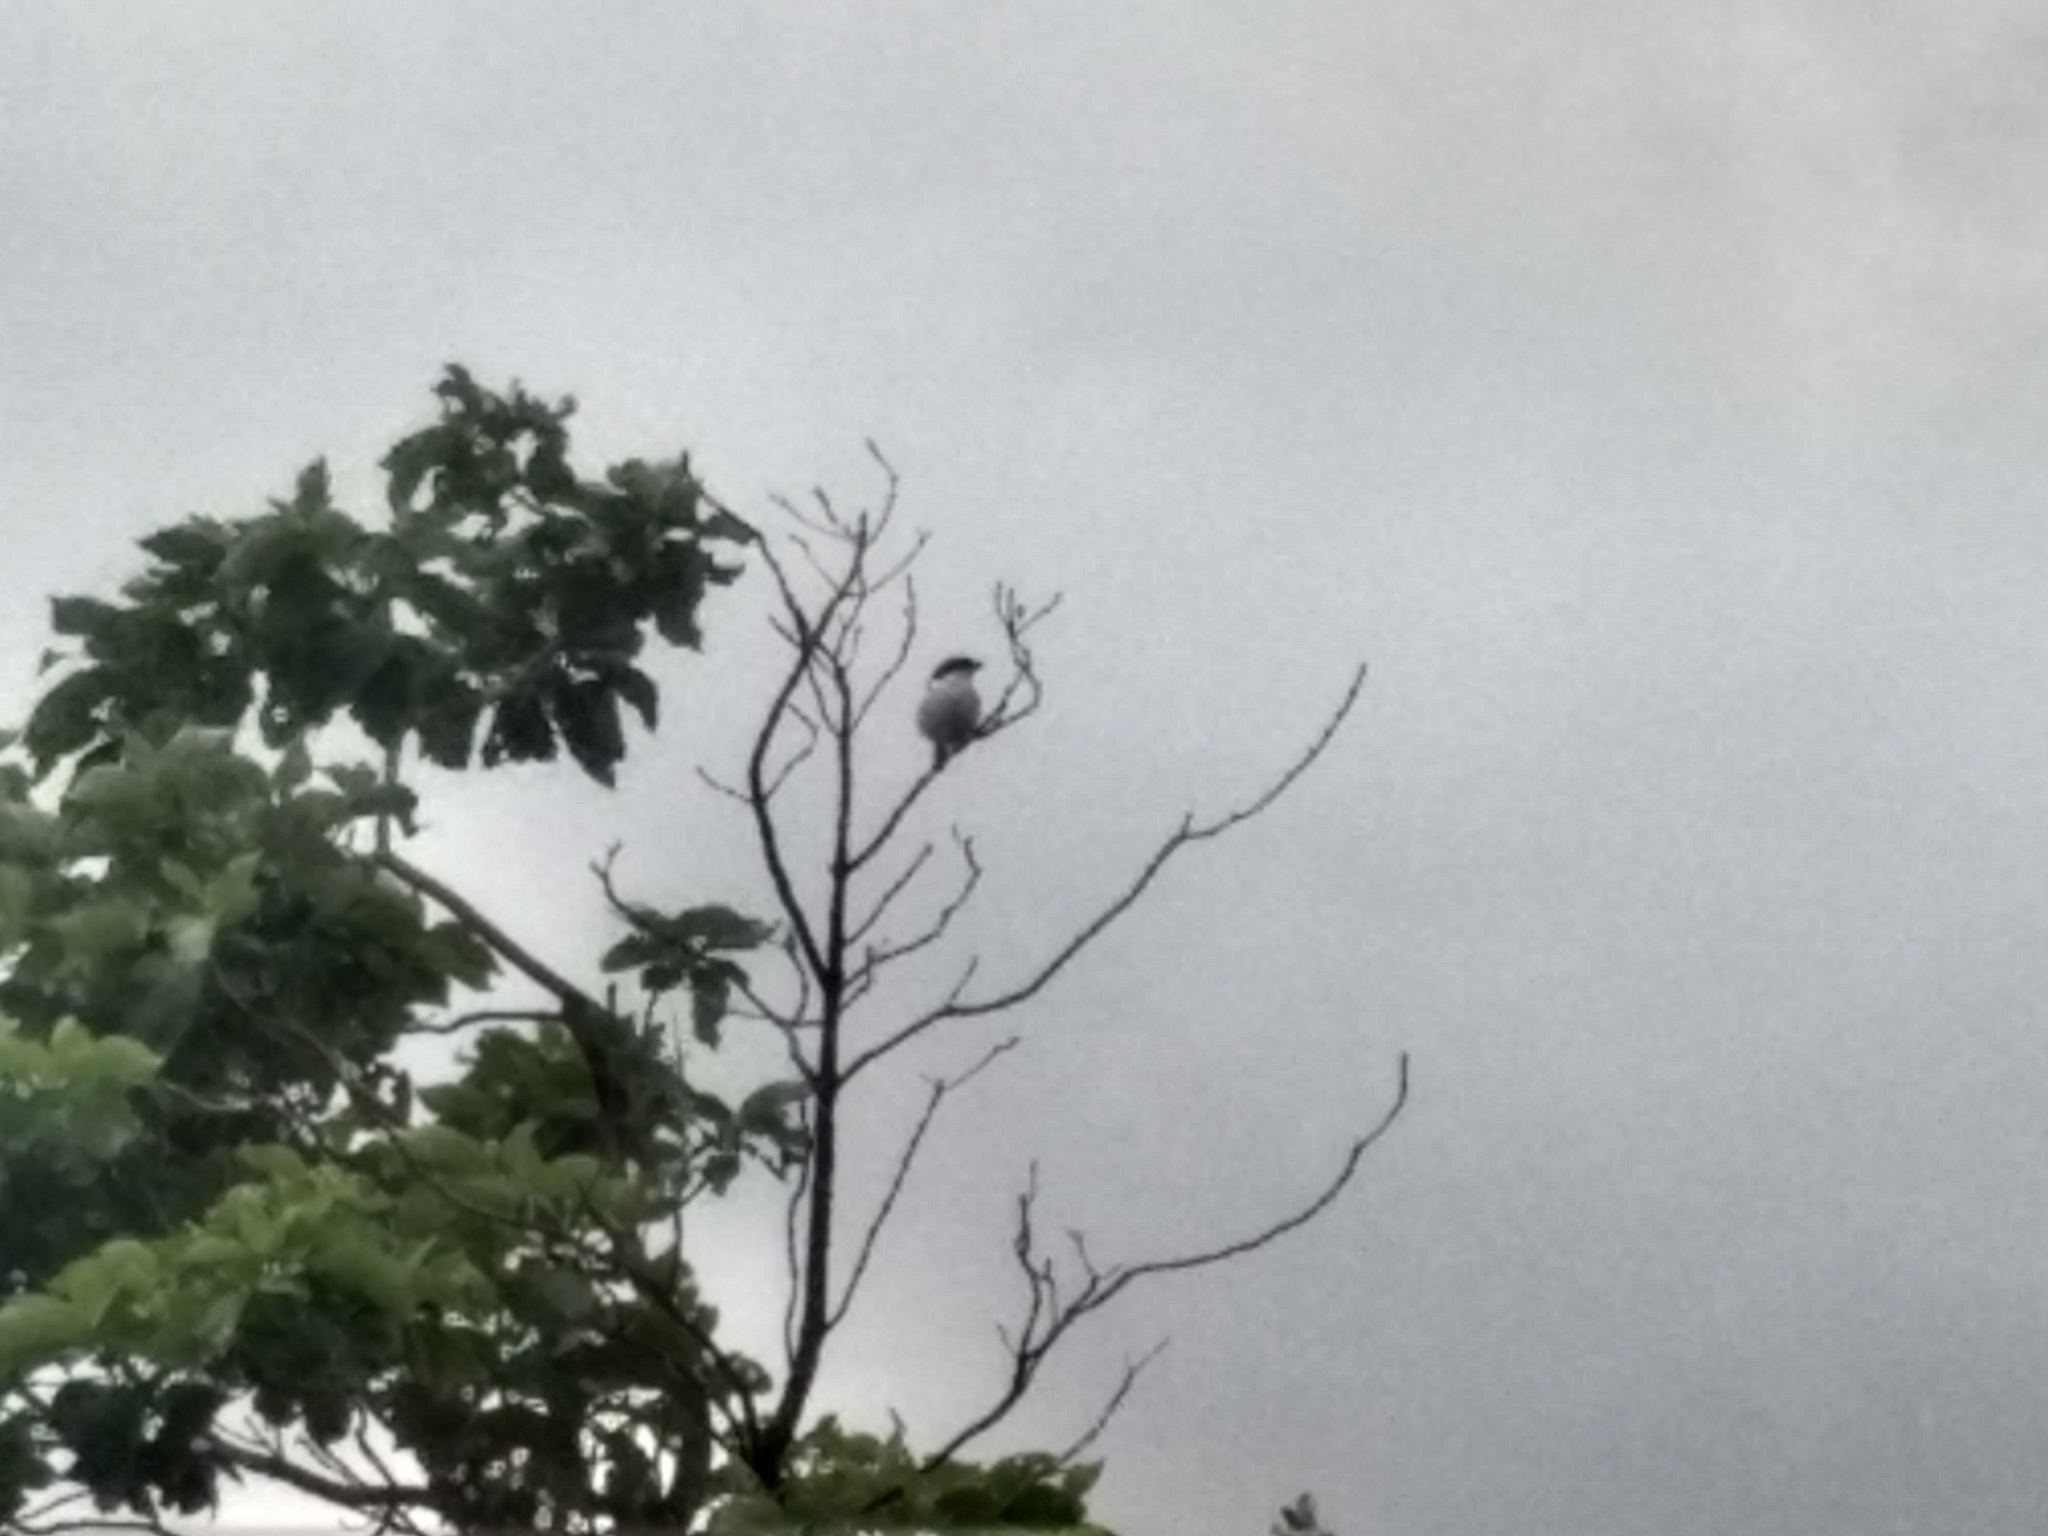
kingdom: Animalia
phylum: Chordata
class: Aves
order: Passeriformes
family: Laniidae
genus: Lanius
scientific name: Lanius excubitor
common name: Great grey shrike
